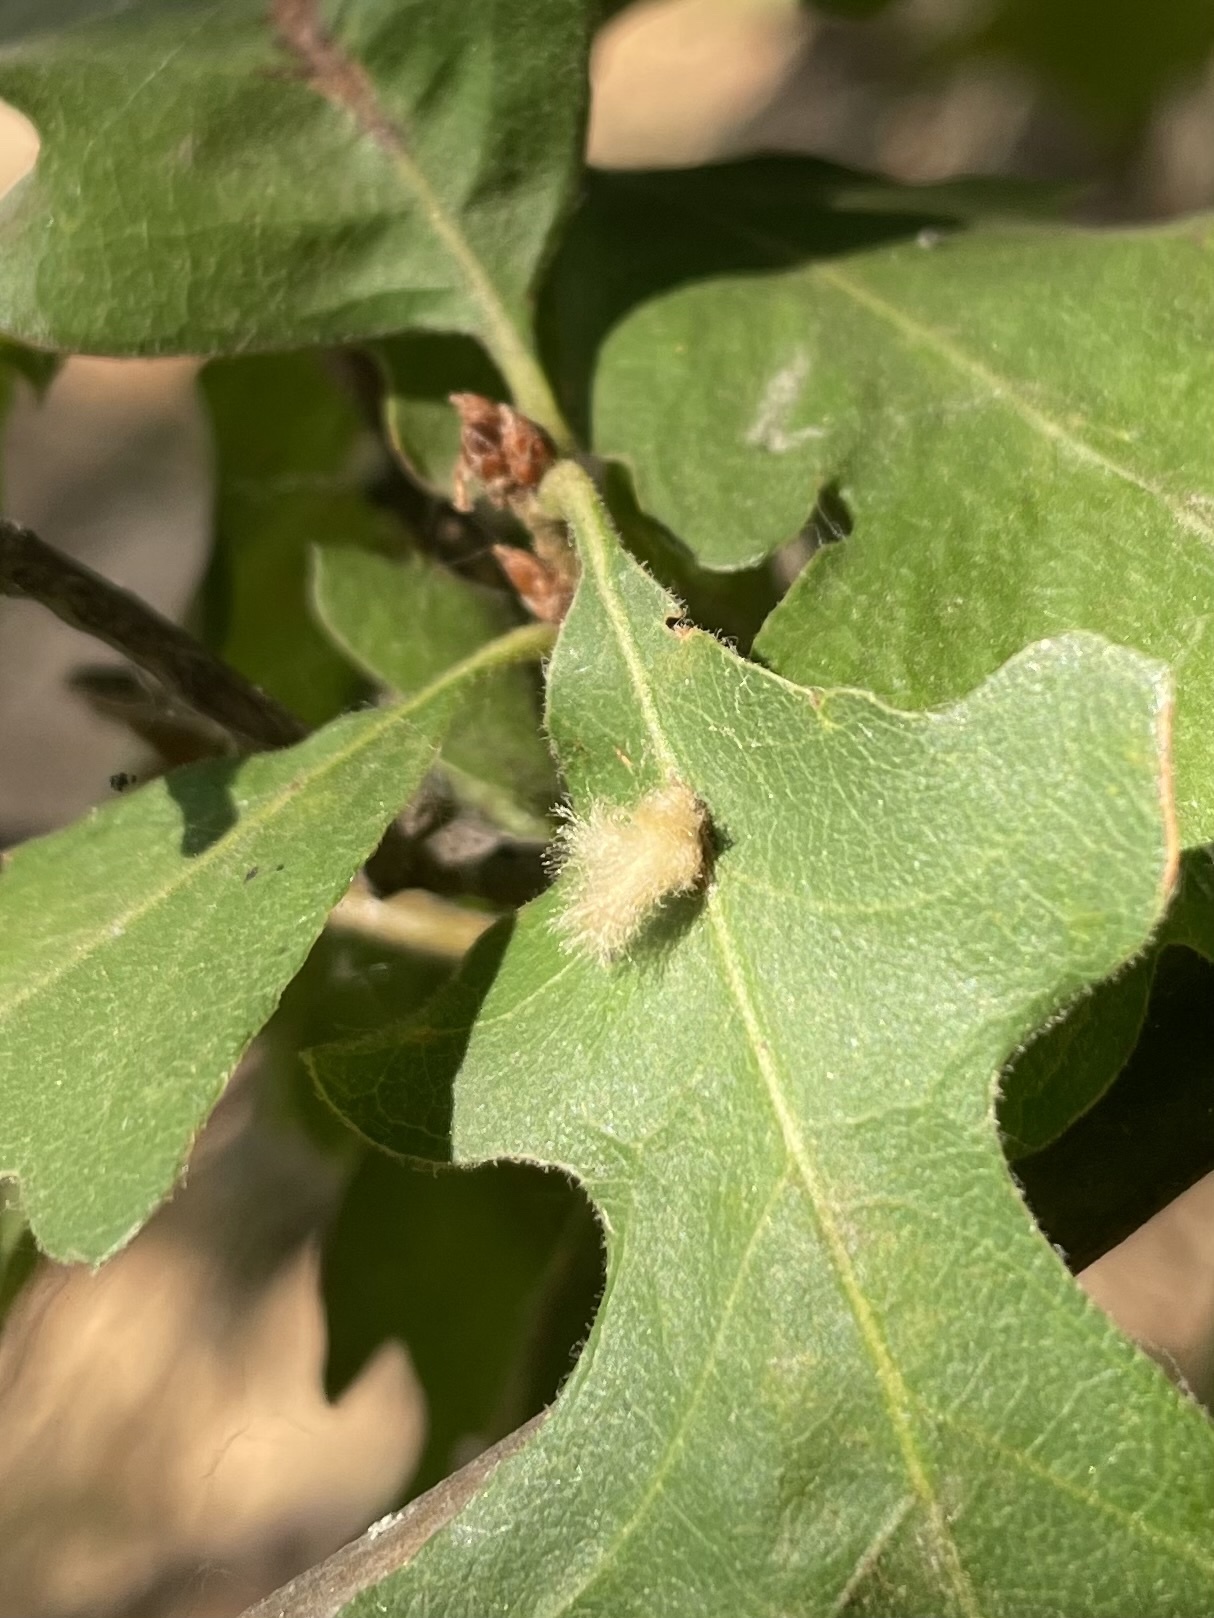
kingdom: Animalia
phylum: Arthropoda
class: Insecta
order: Hymenoptera
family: Cynipidae
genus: Andricus
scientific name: Andricus Druon fullawayi
